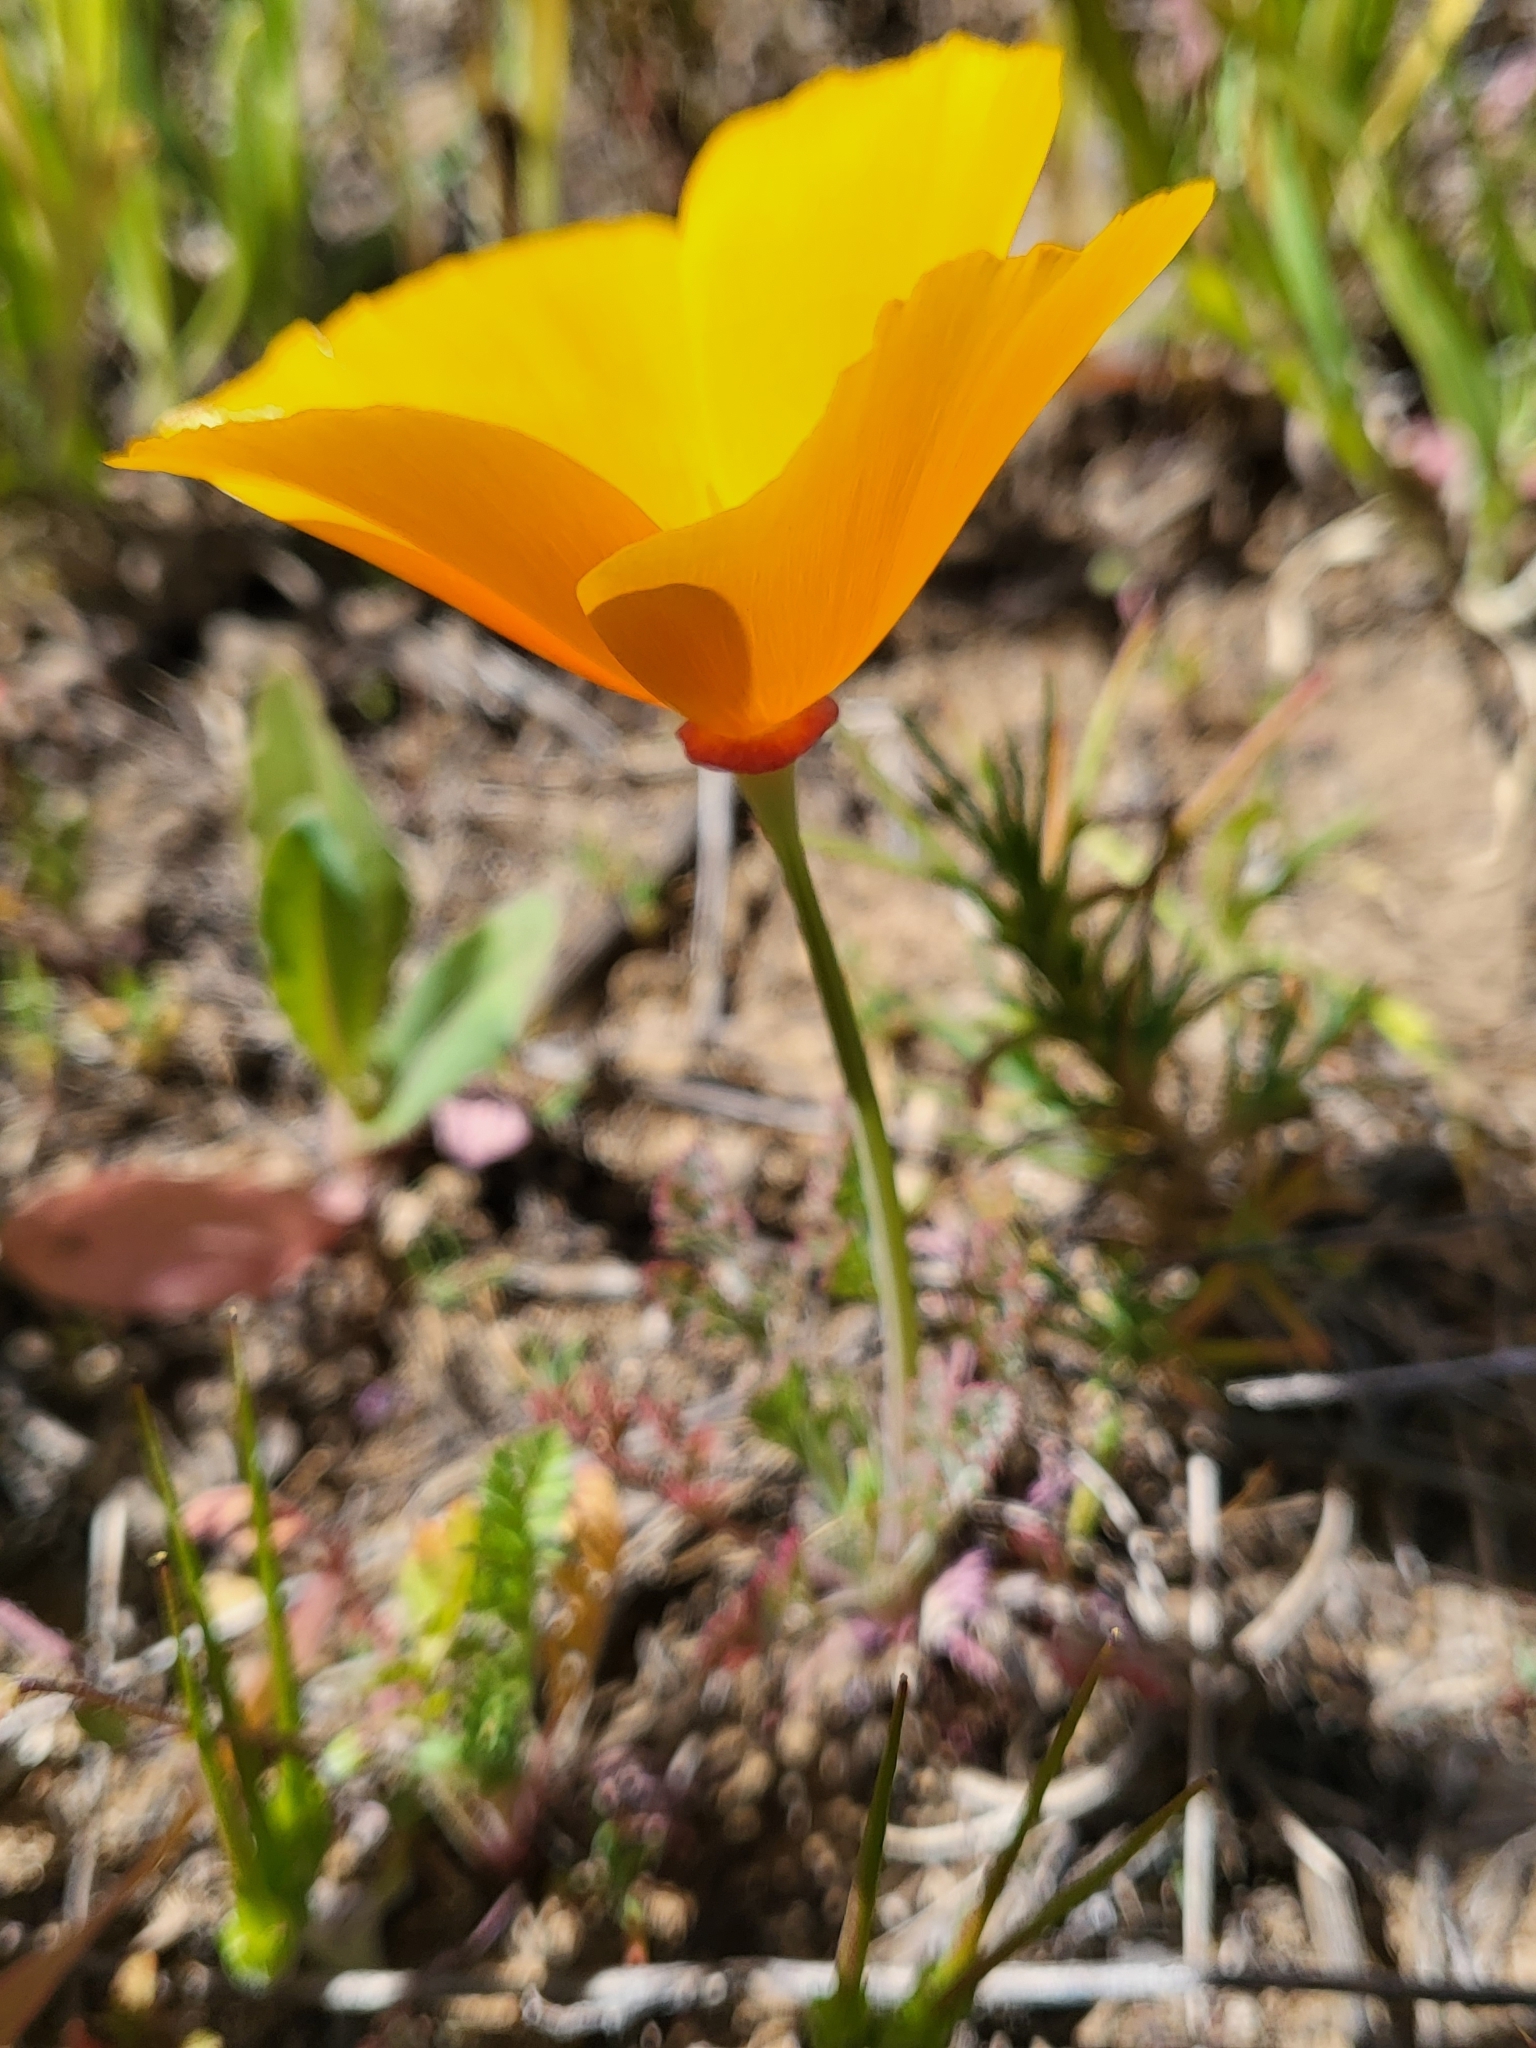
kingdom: Plantae
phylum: Tracheophyta
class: Magnoliopsida
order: Ranunculales
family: Papaveraceae
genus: Eschscholzia
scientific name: Eschscholzia californica
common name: California poppy
